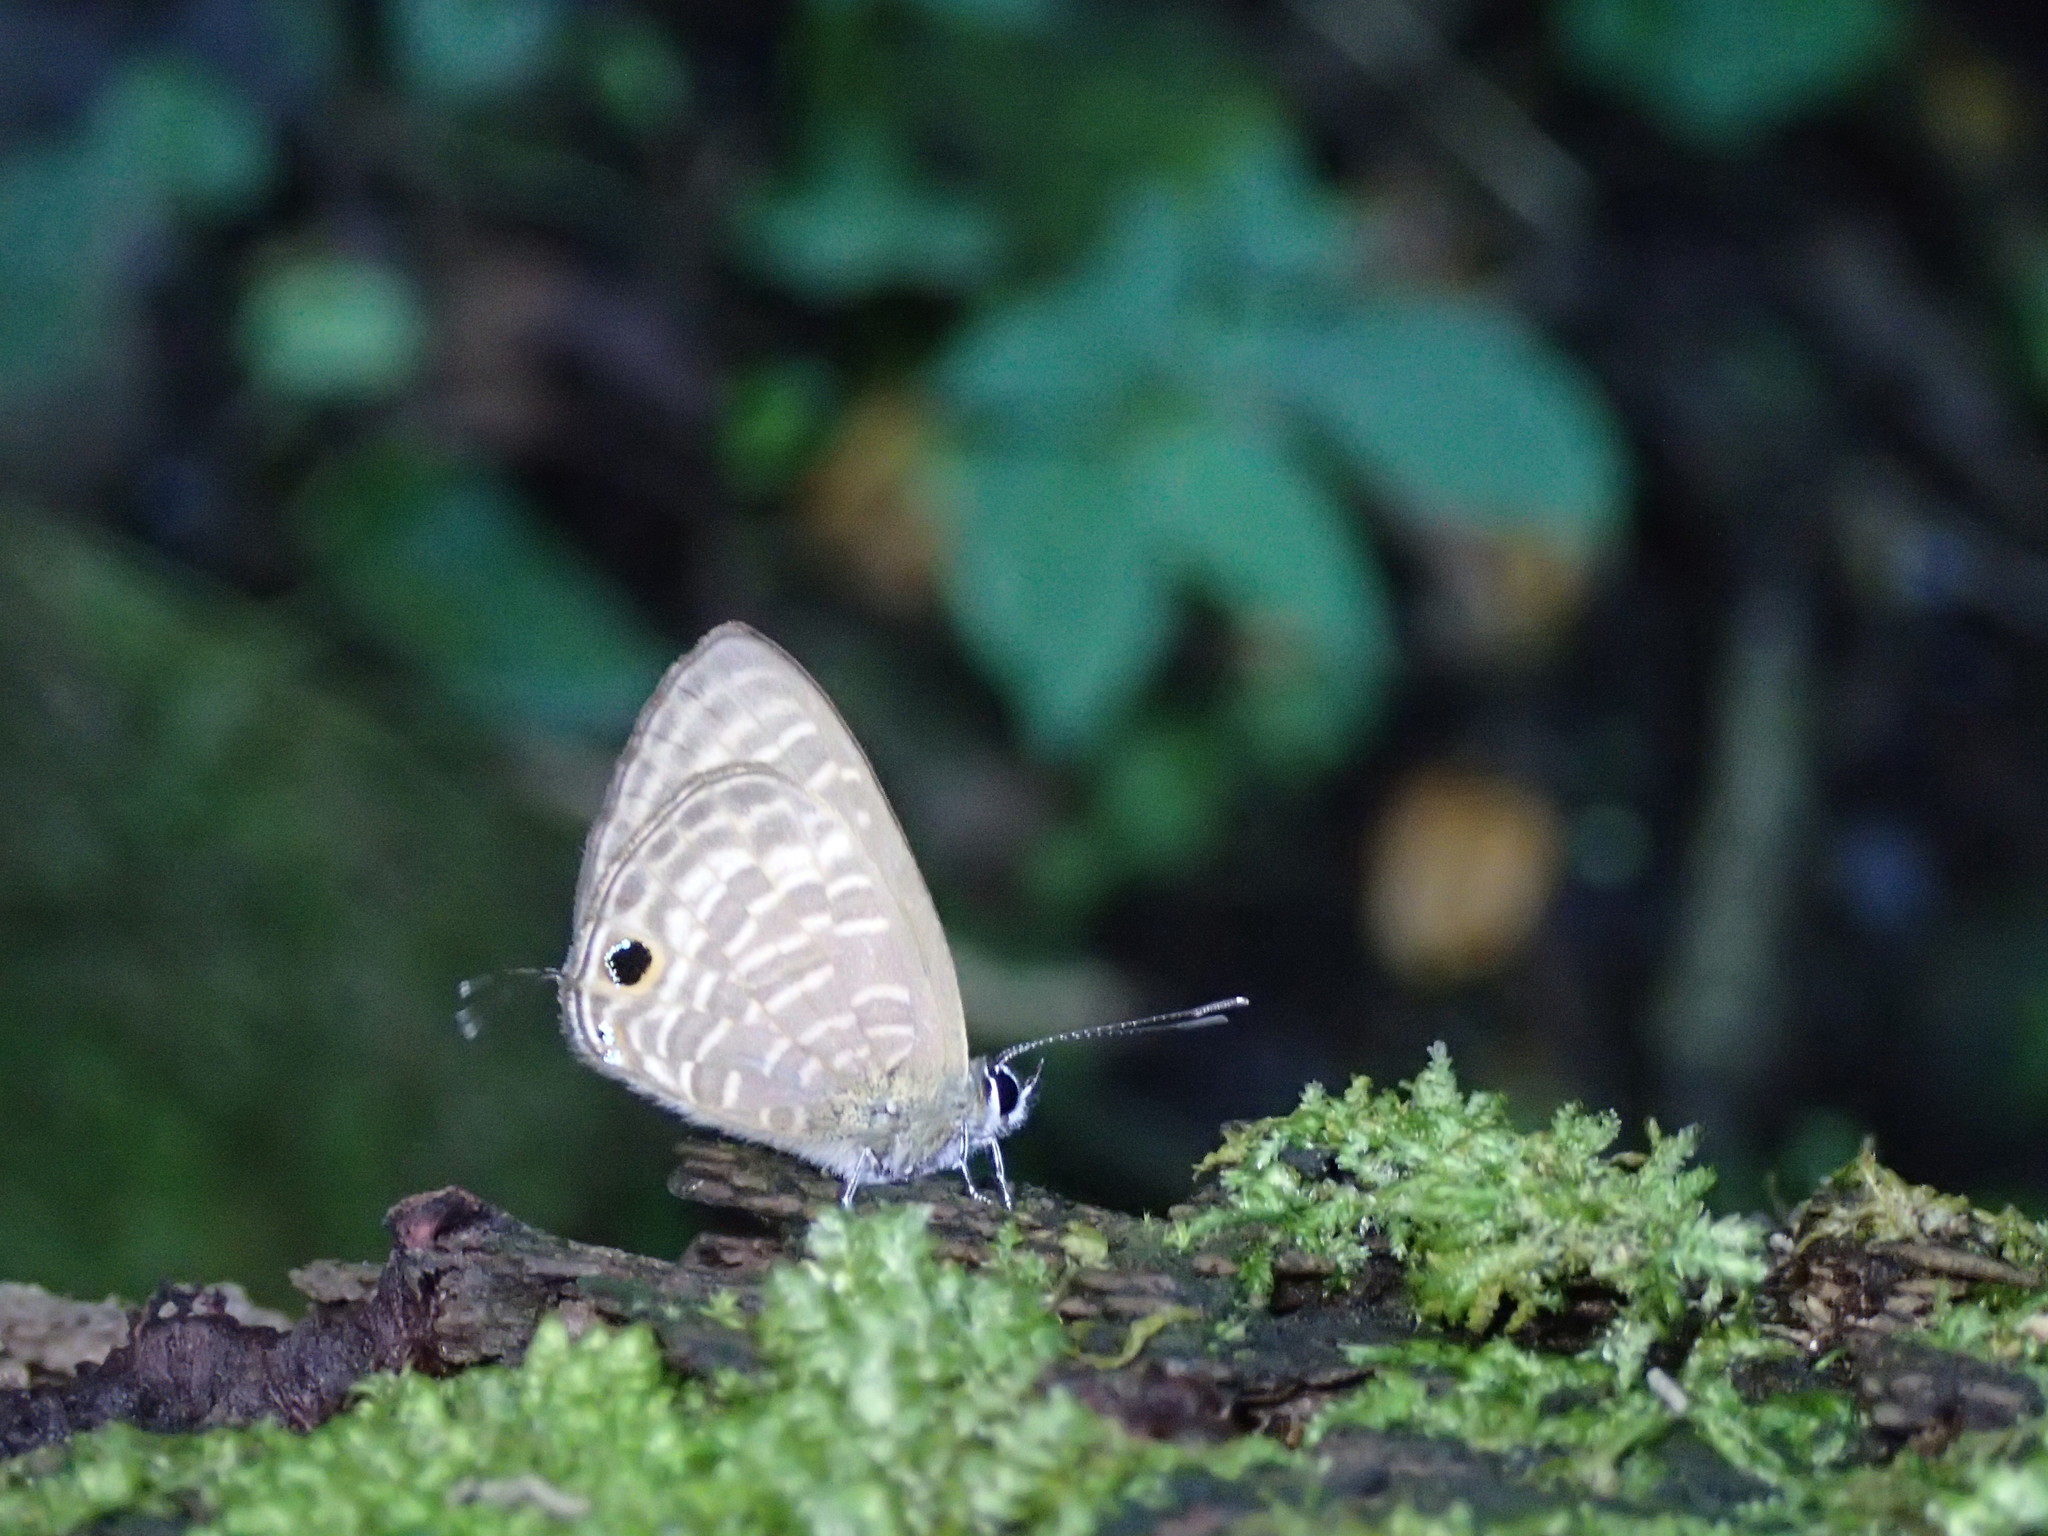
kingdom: Animalia
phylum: Arthropoda
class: Insecta
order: Lepidoptera
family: Lycaenidae
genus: Nacaduba
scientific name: Nacaduba pactolus
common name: Large fourline blue
